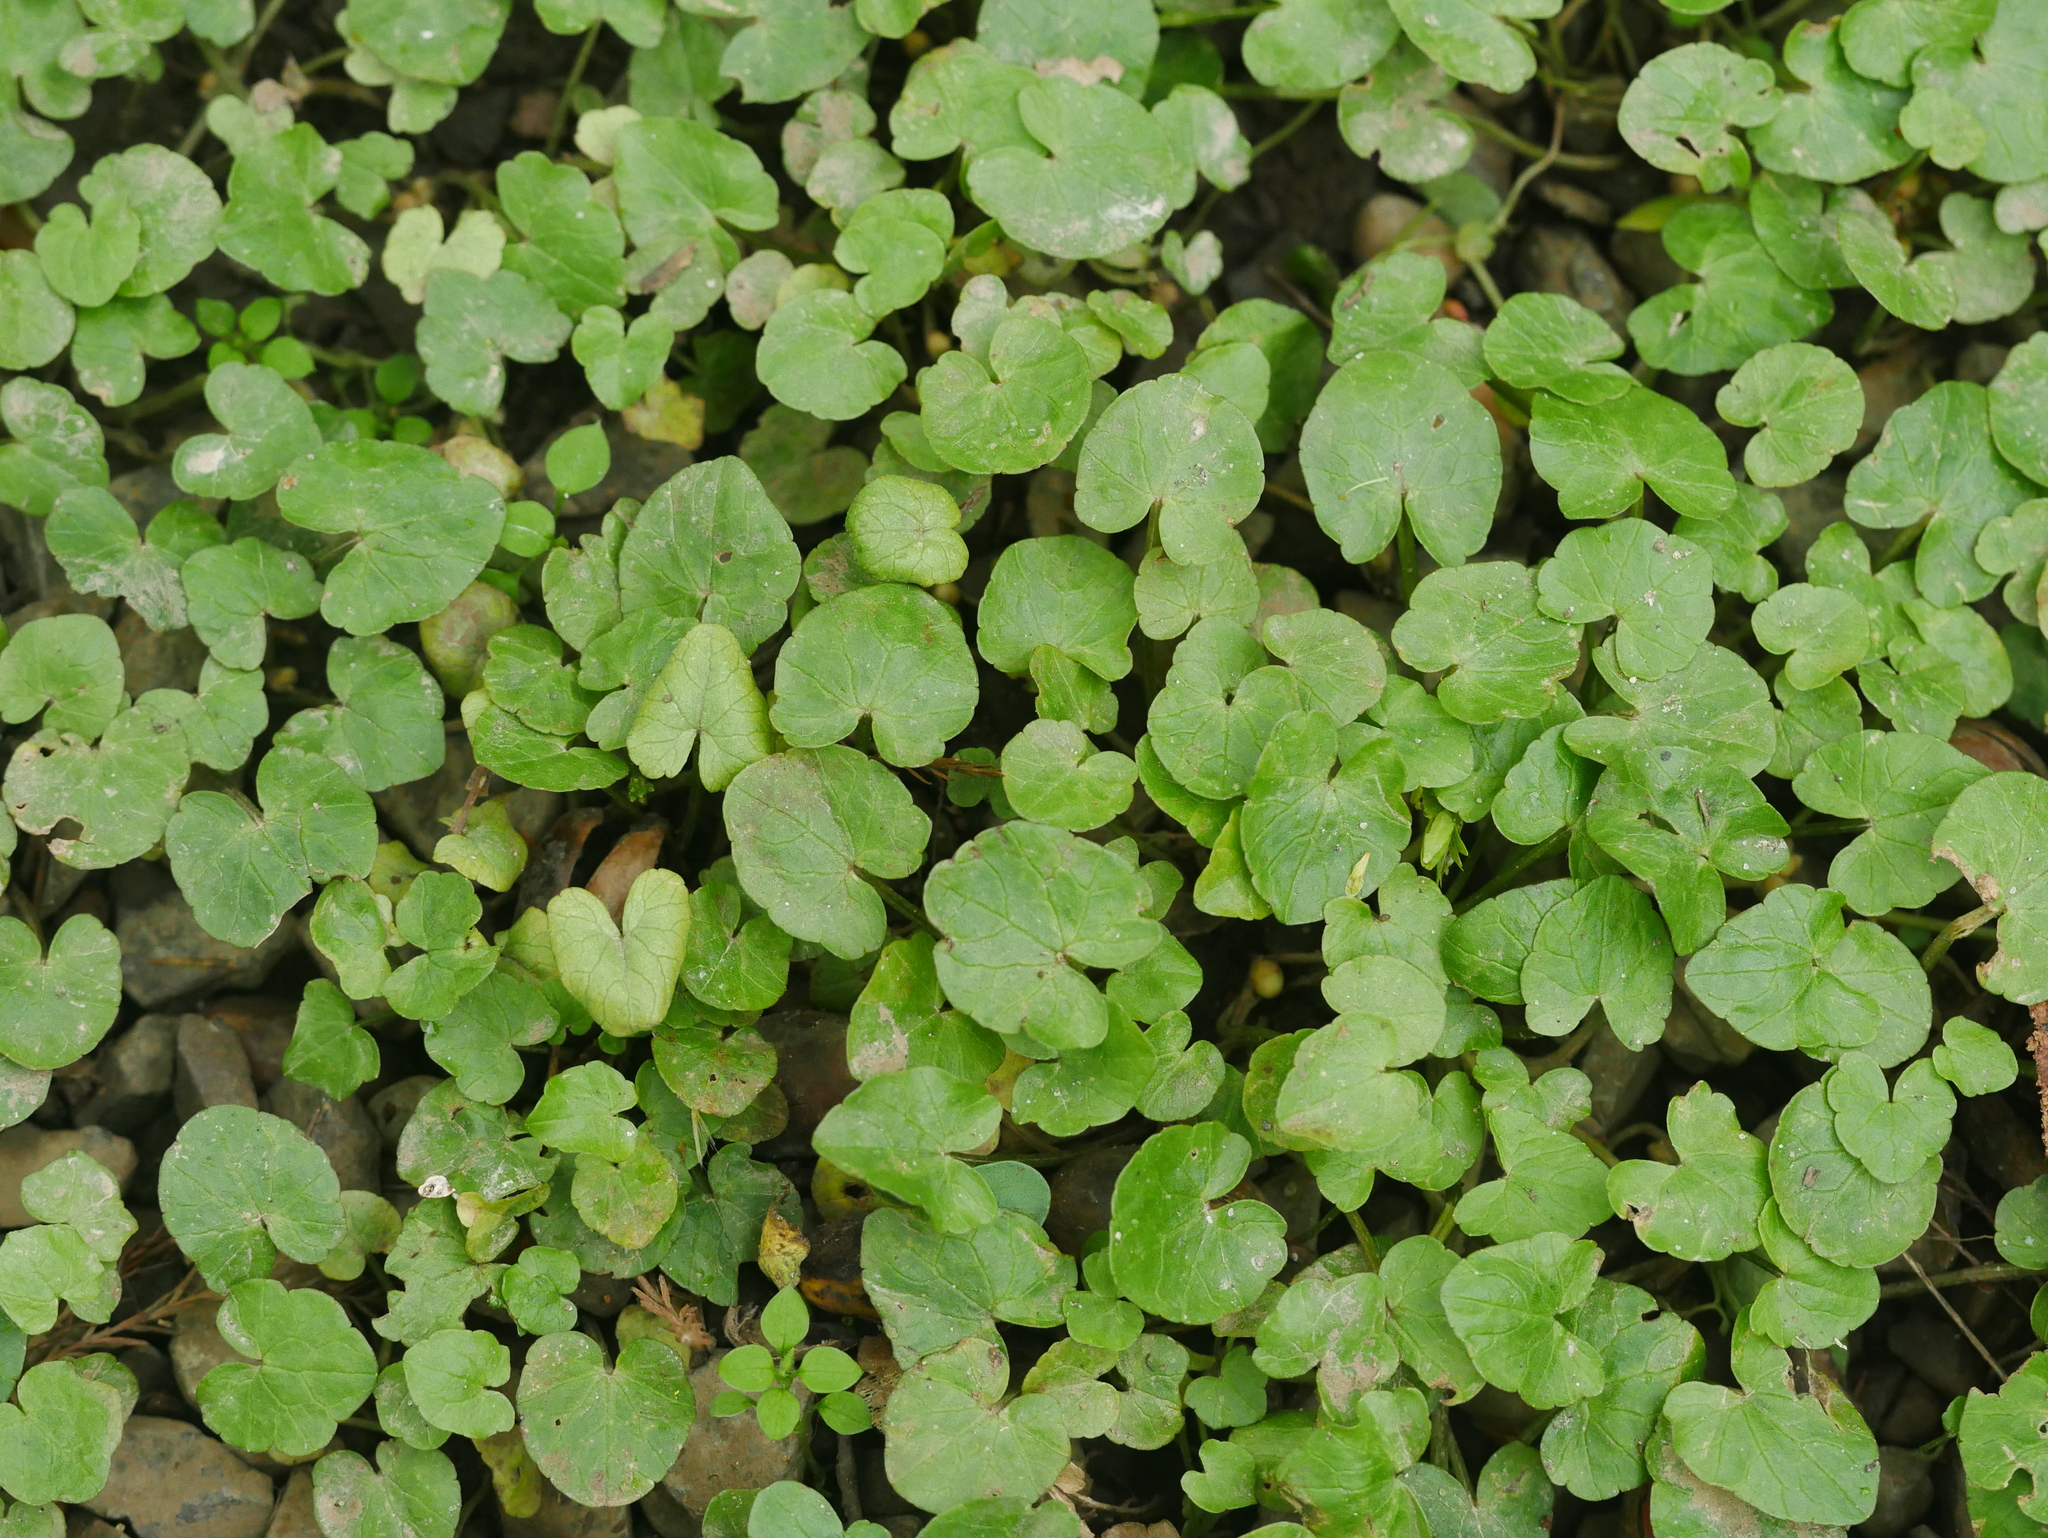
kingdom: Plantae
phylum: Tracheophyta
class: Magnoliopsida
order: Ranunculales
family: Ranunculaceae
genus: Ficaria
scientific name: Ficaria verna
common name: Lesser celandine
